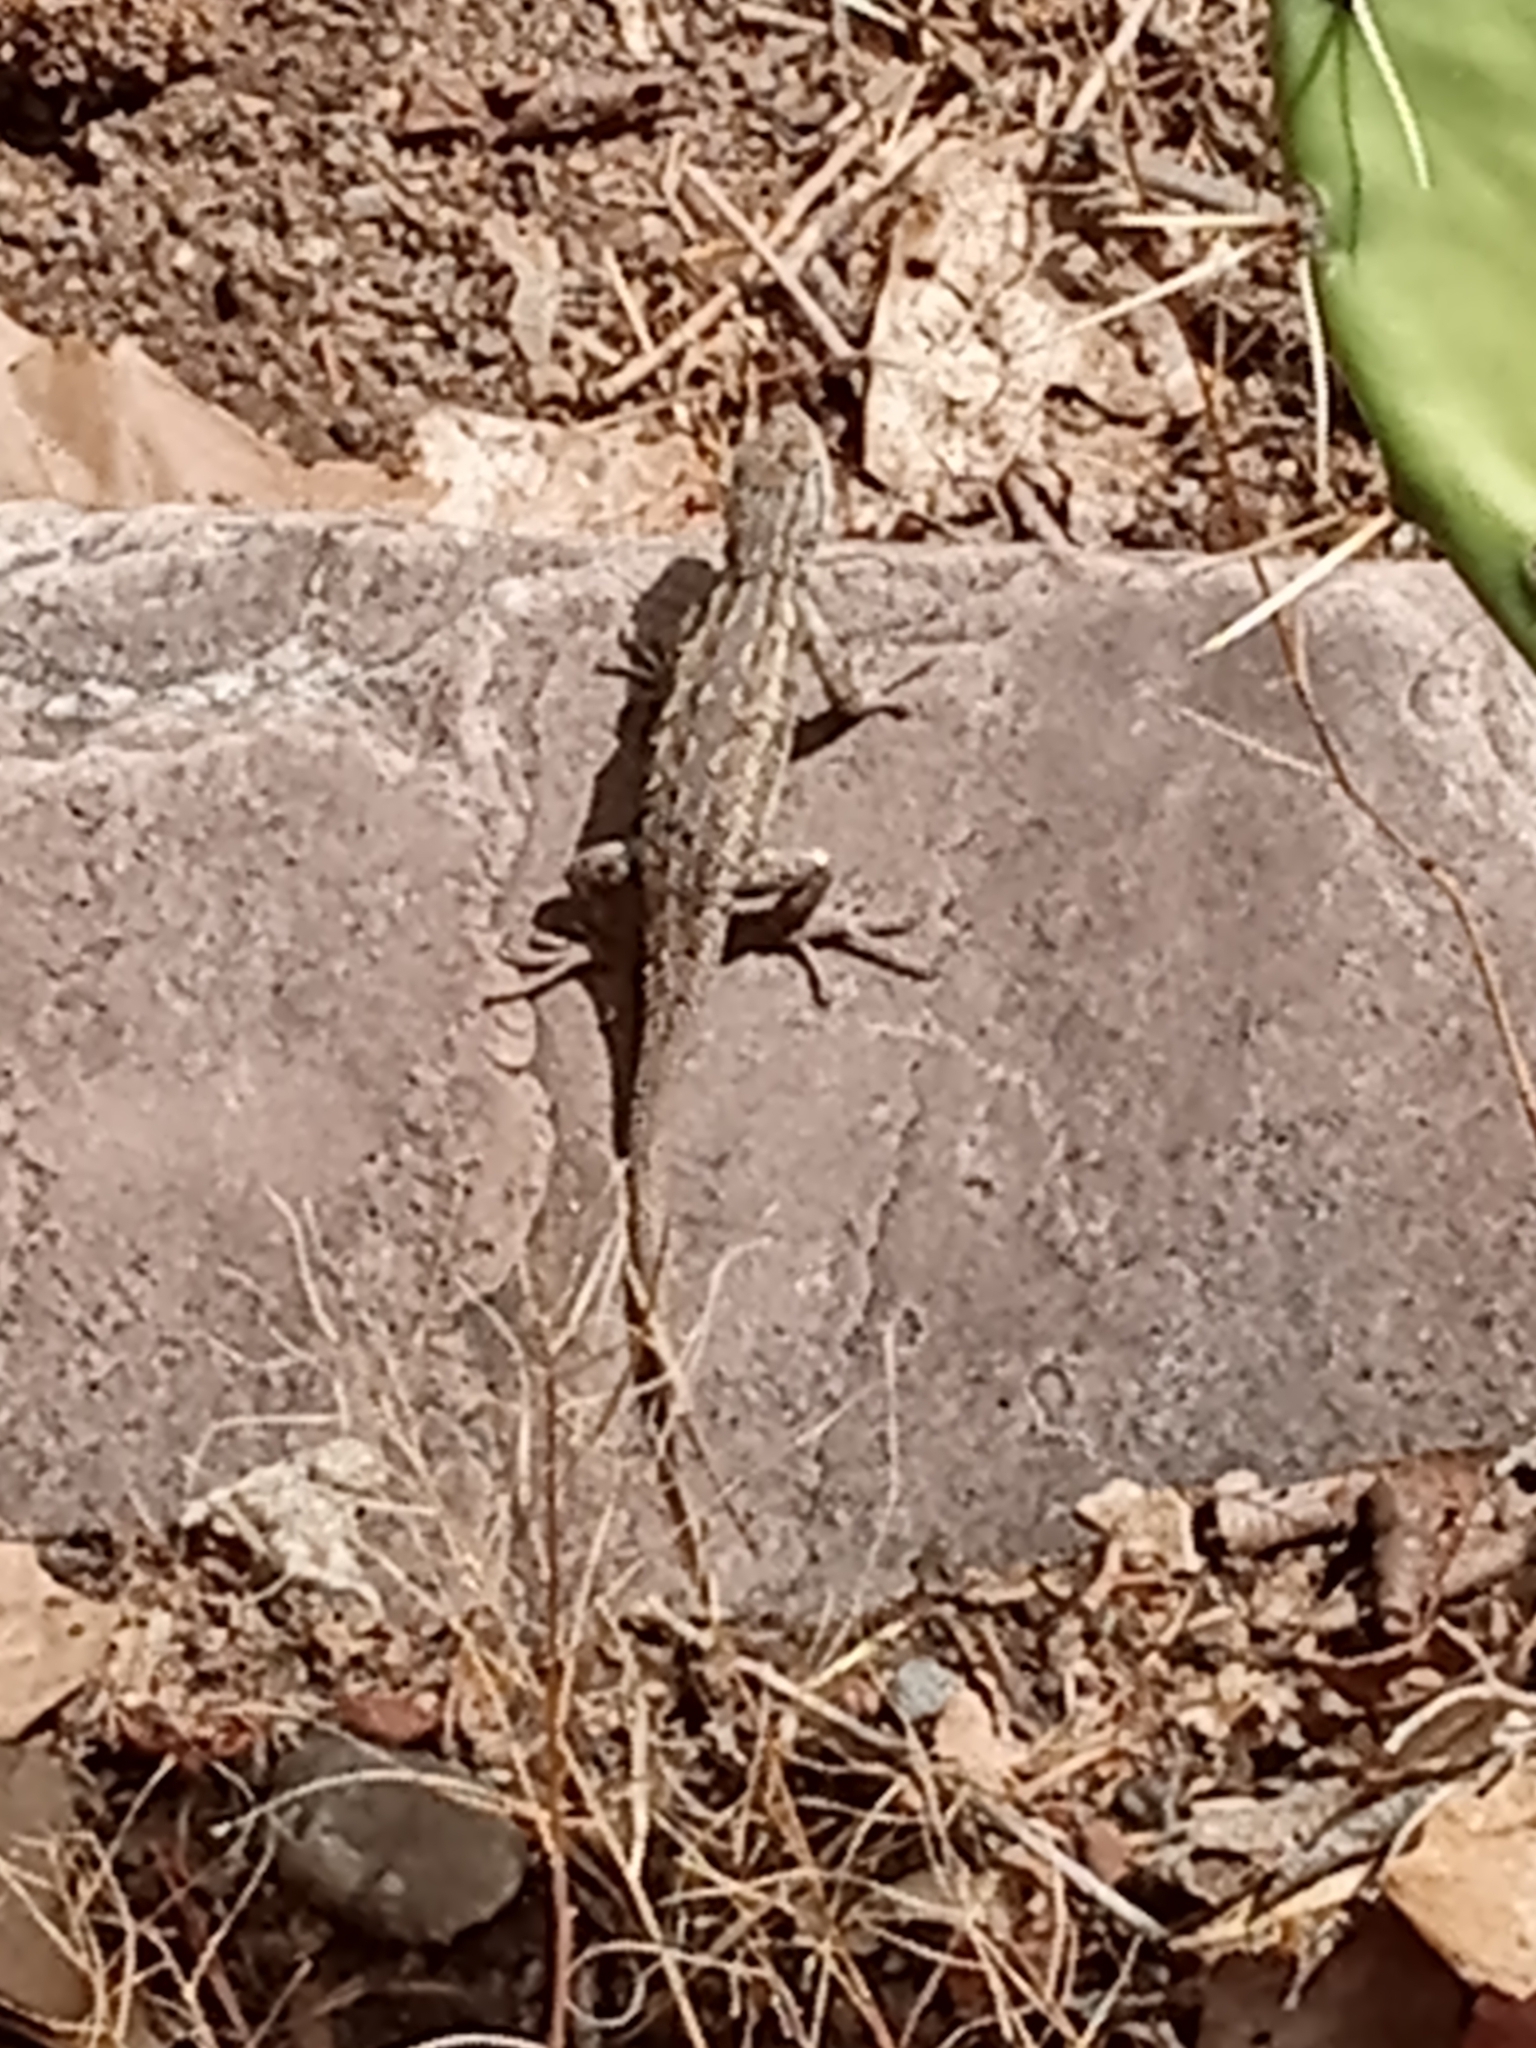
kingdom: Animalia
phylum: Chordata
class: Squamata
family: Phrynosomatidae
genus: Sceloporus
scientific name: Sceloporus cowlesi
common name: White sands prairie lizard
